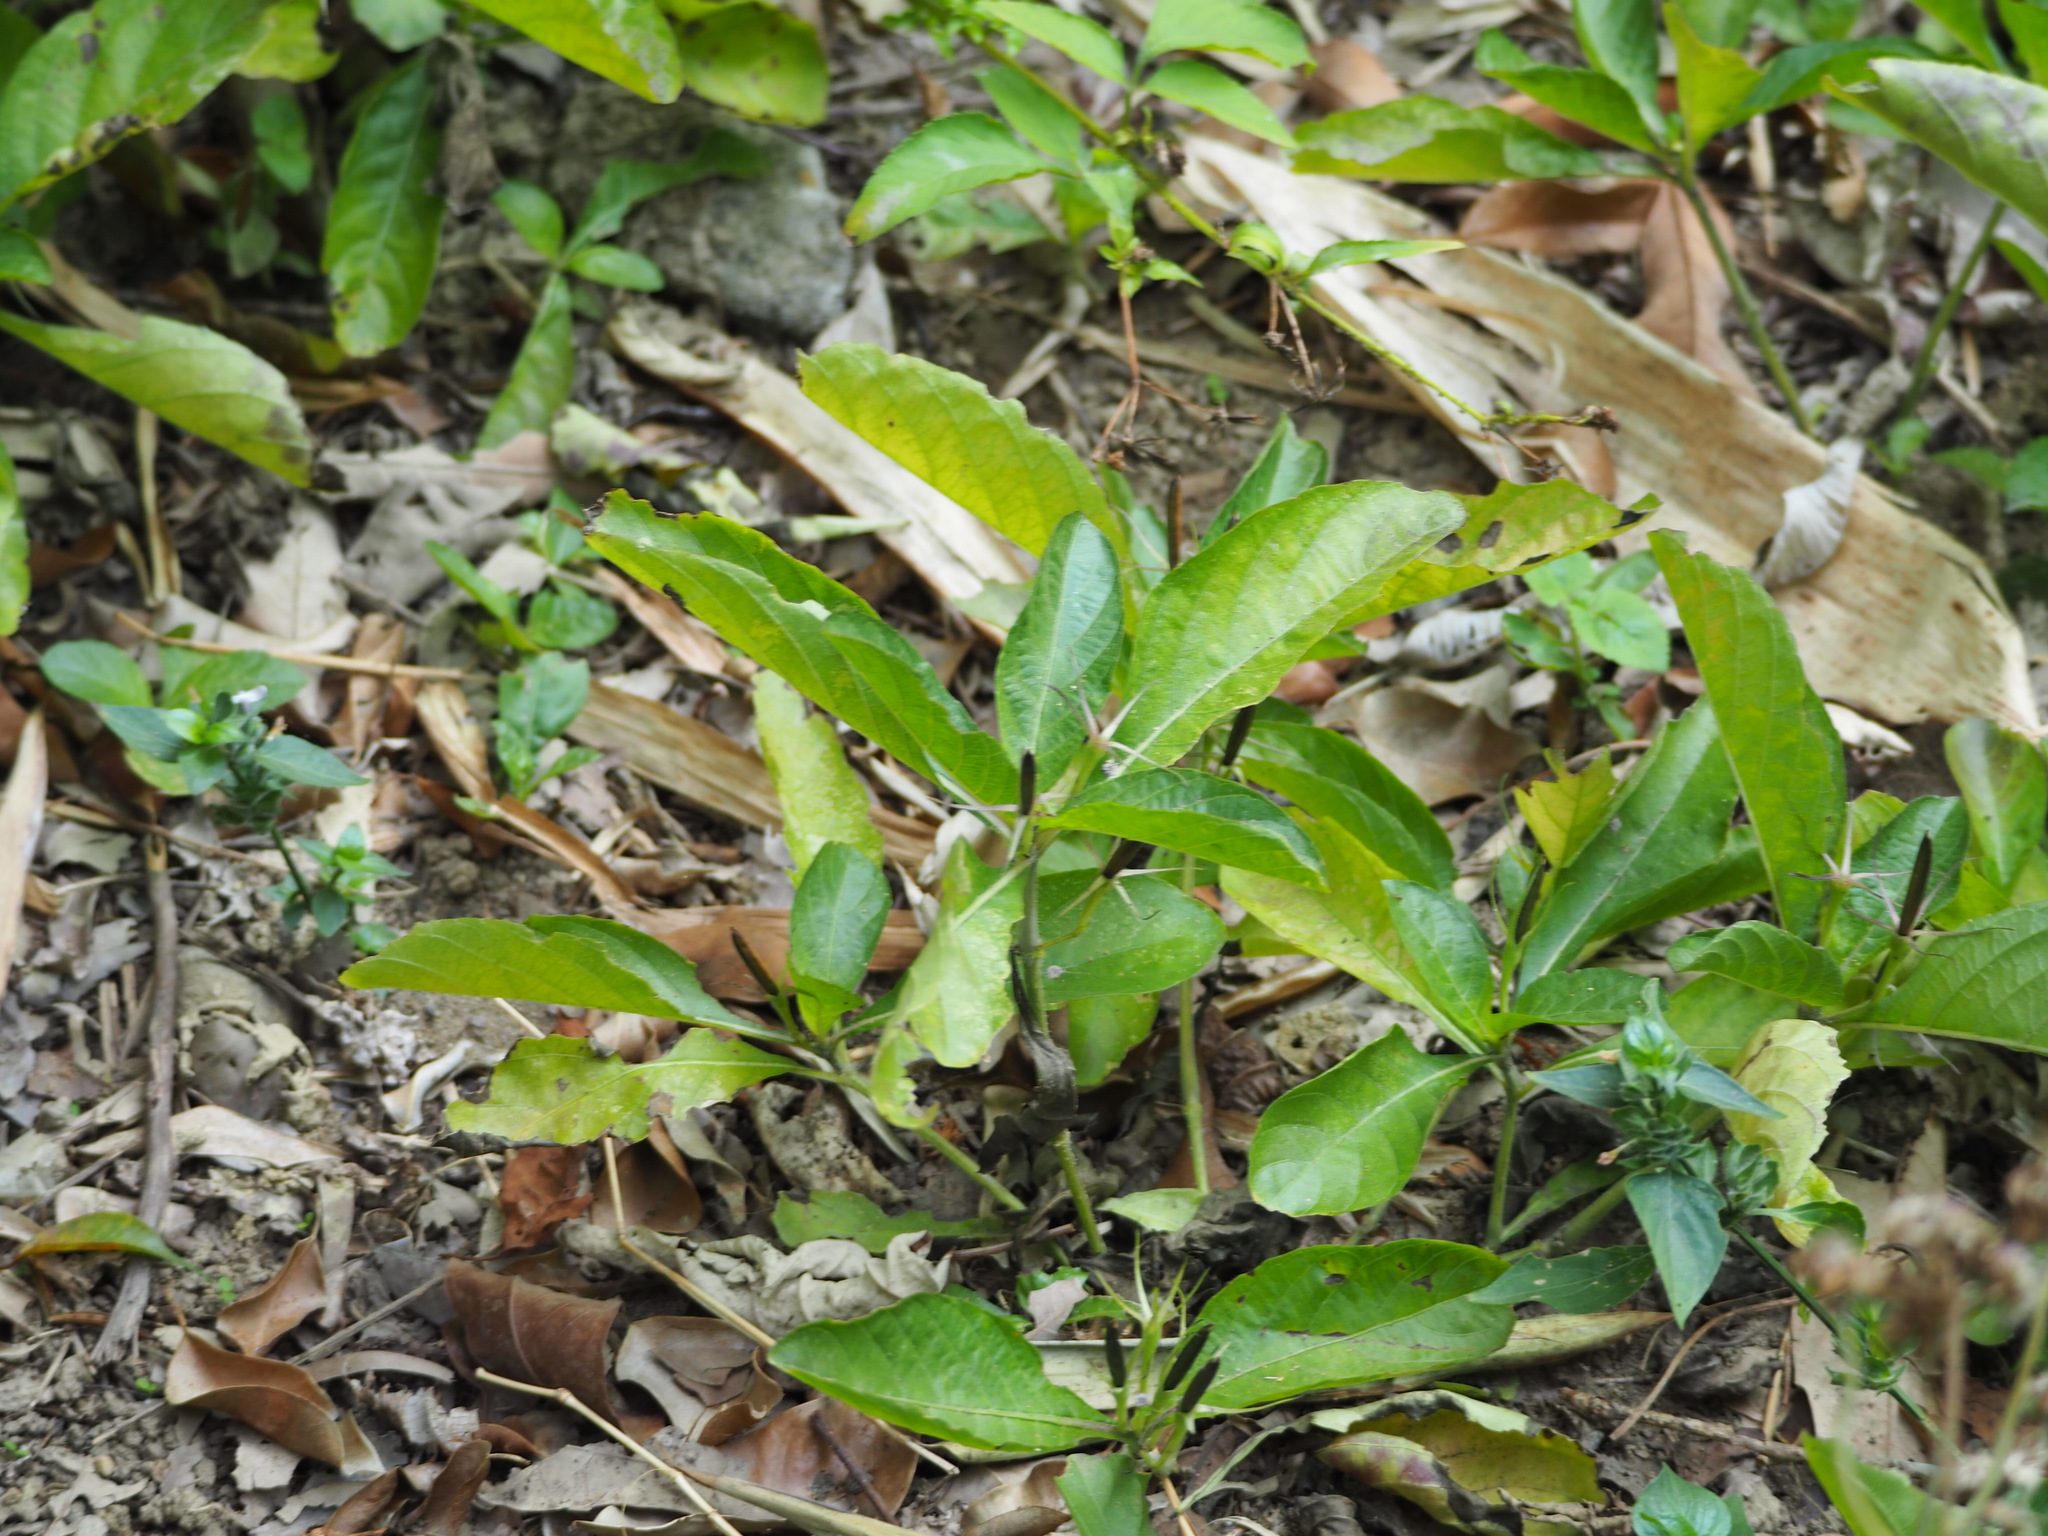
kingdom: Plantae
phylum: Tracheophyta
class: Magnoliopsida
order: Lamiales
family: Acanthaceae
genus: Ruellia
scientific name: Ruellia tuberosa
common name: Devil's bit
